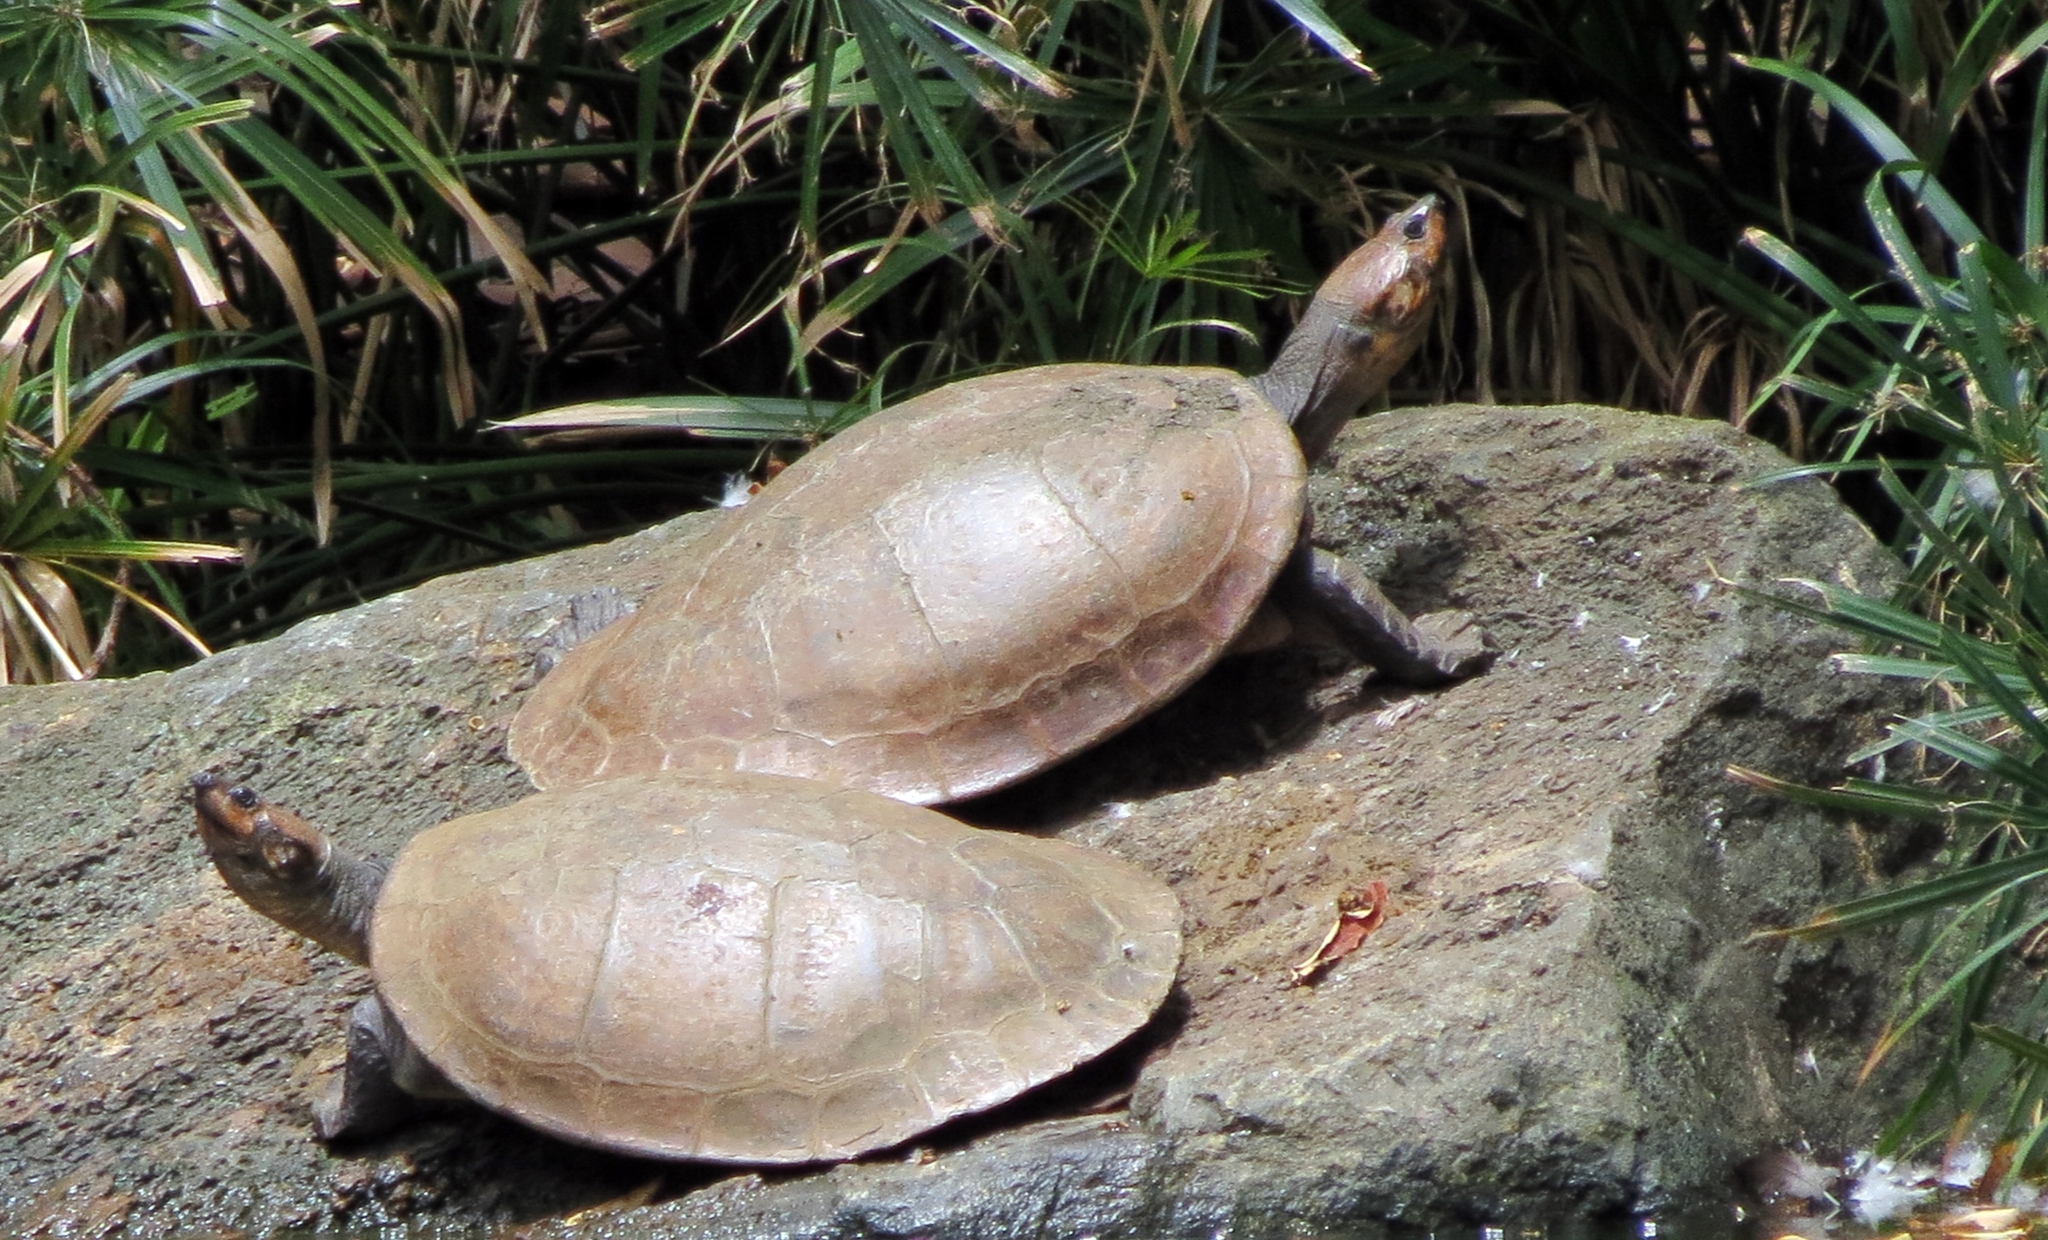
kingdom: Animalia
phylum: Chordata
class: Testudines
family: Podocnemididae
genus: Podocnemis
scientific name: Podocnemis lewyana
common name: Rio magdalena river turtle
